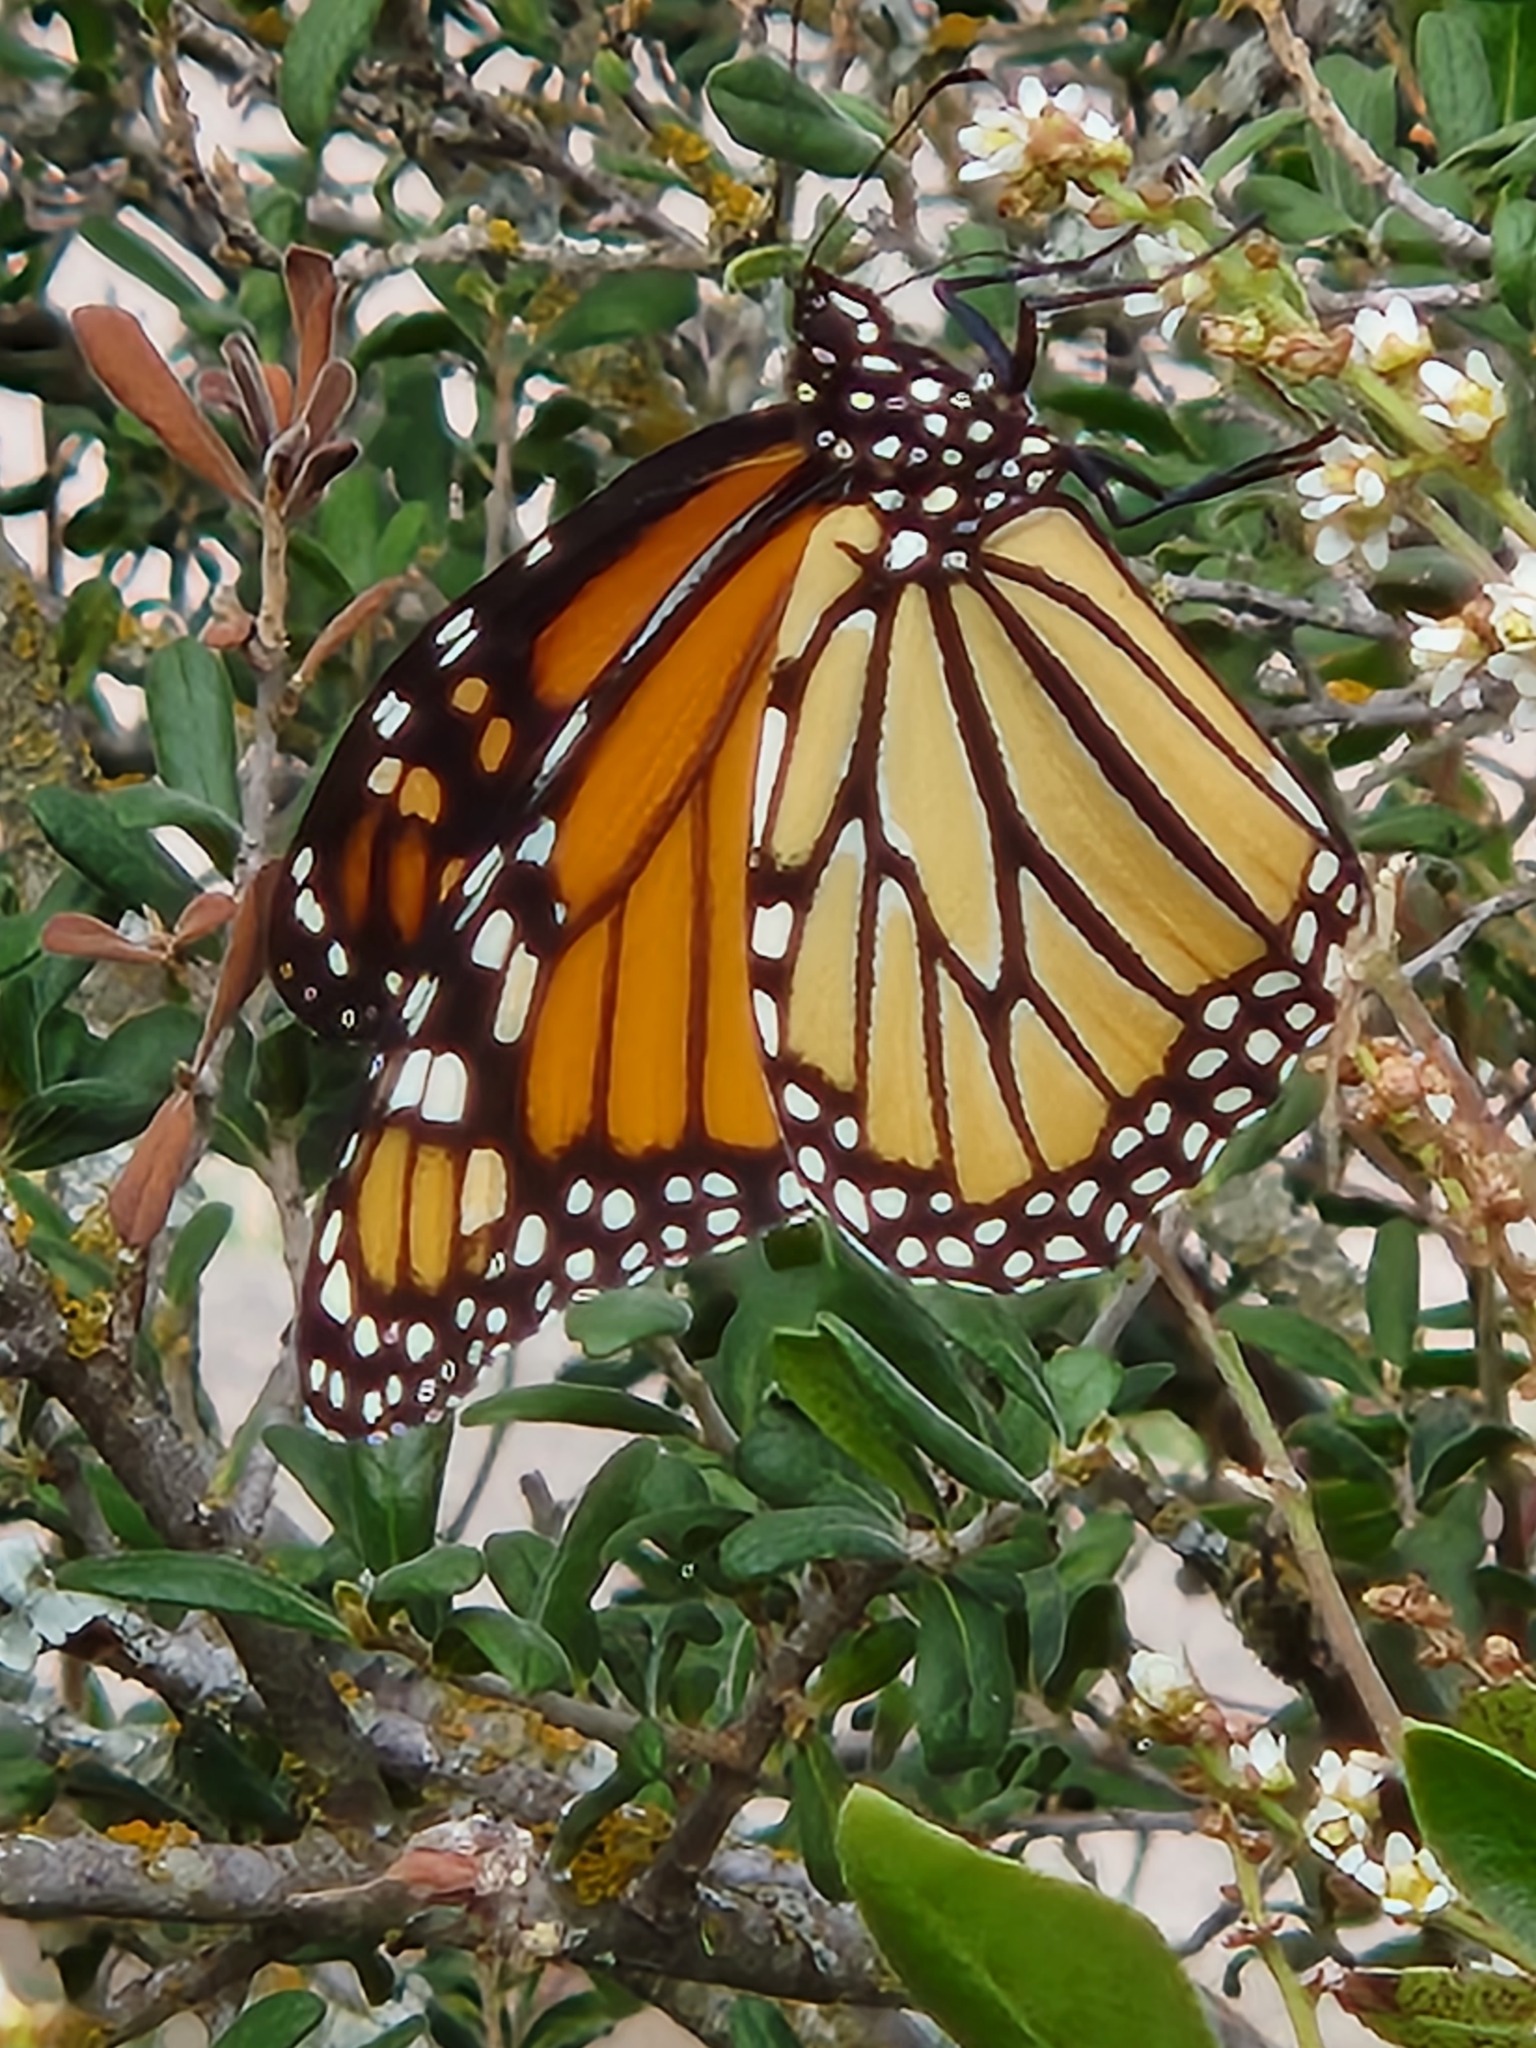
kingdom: Animalia
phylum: Arthropoda
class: Insecta
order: Lepidoptera
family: Nymphalidae
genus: Danaus
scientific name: Danaus plexippus
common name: Monarch
